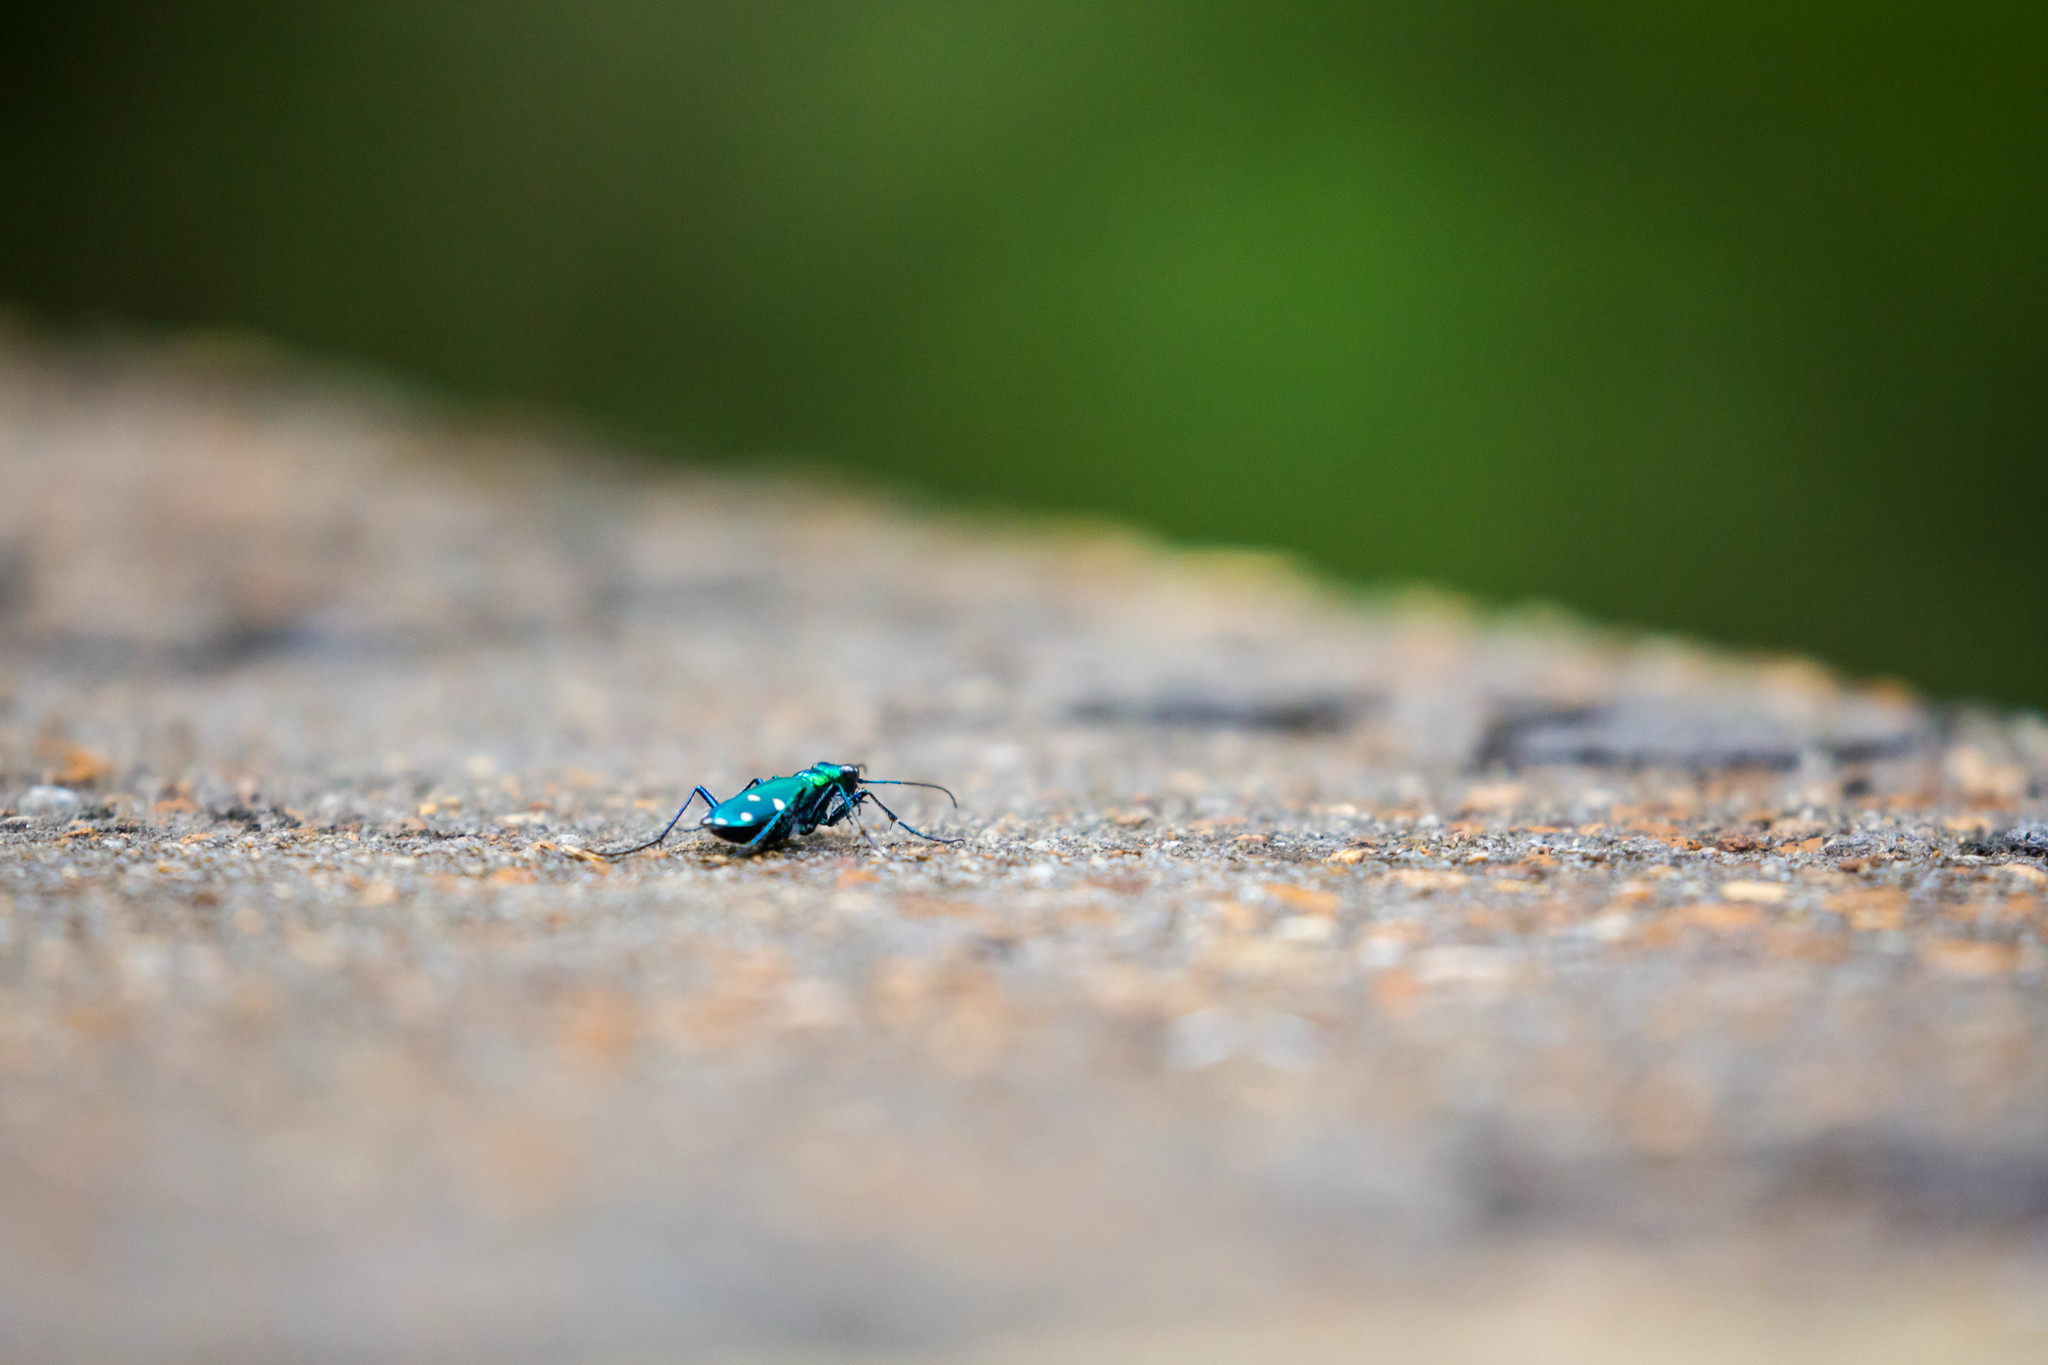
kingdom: Animalia
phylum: Arthropoda
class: Insecta
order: Coleoptera
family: Carabidae
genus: Cicindela
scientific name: Cicindela sexguttata
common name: Six-spotted tiger beetle
